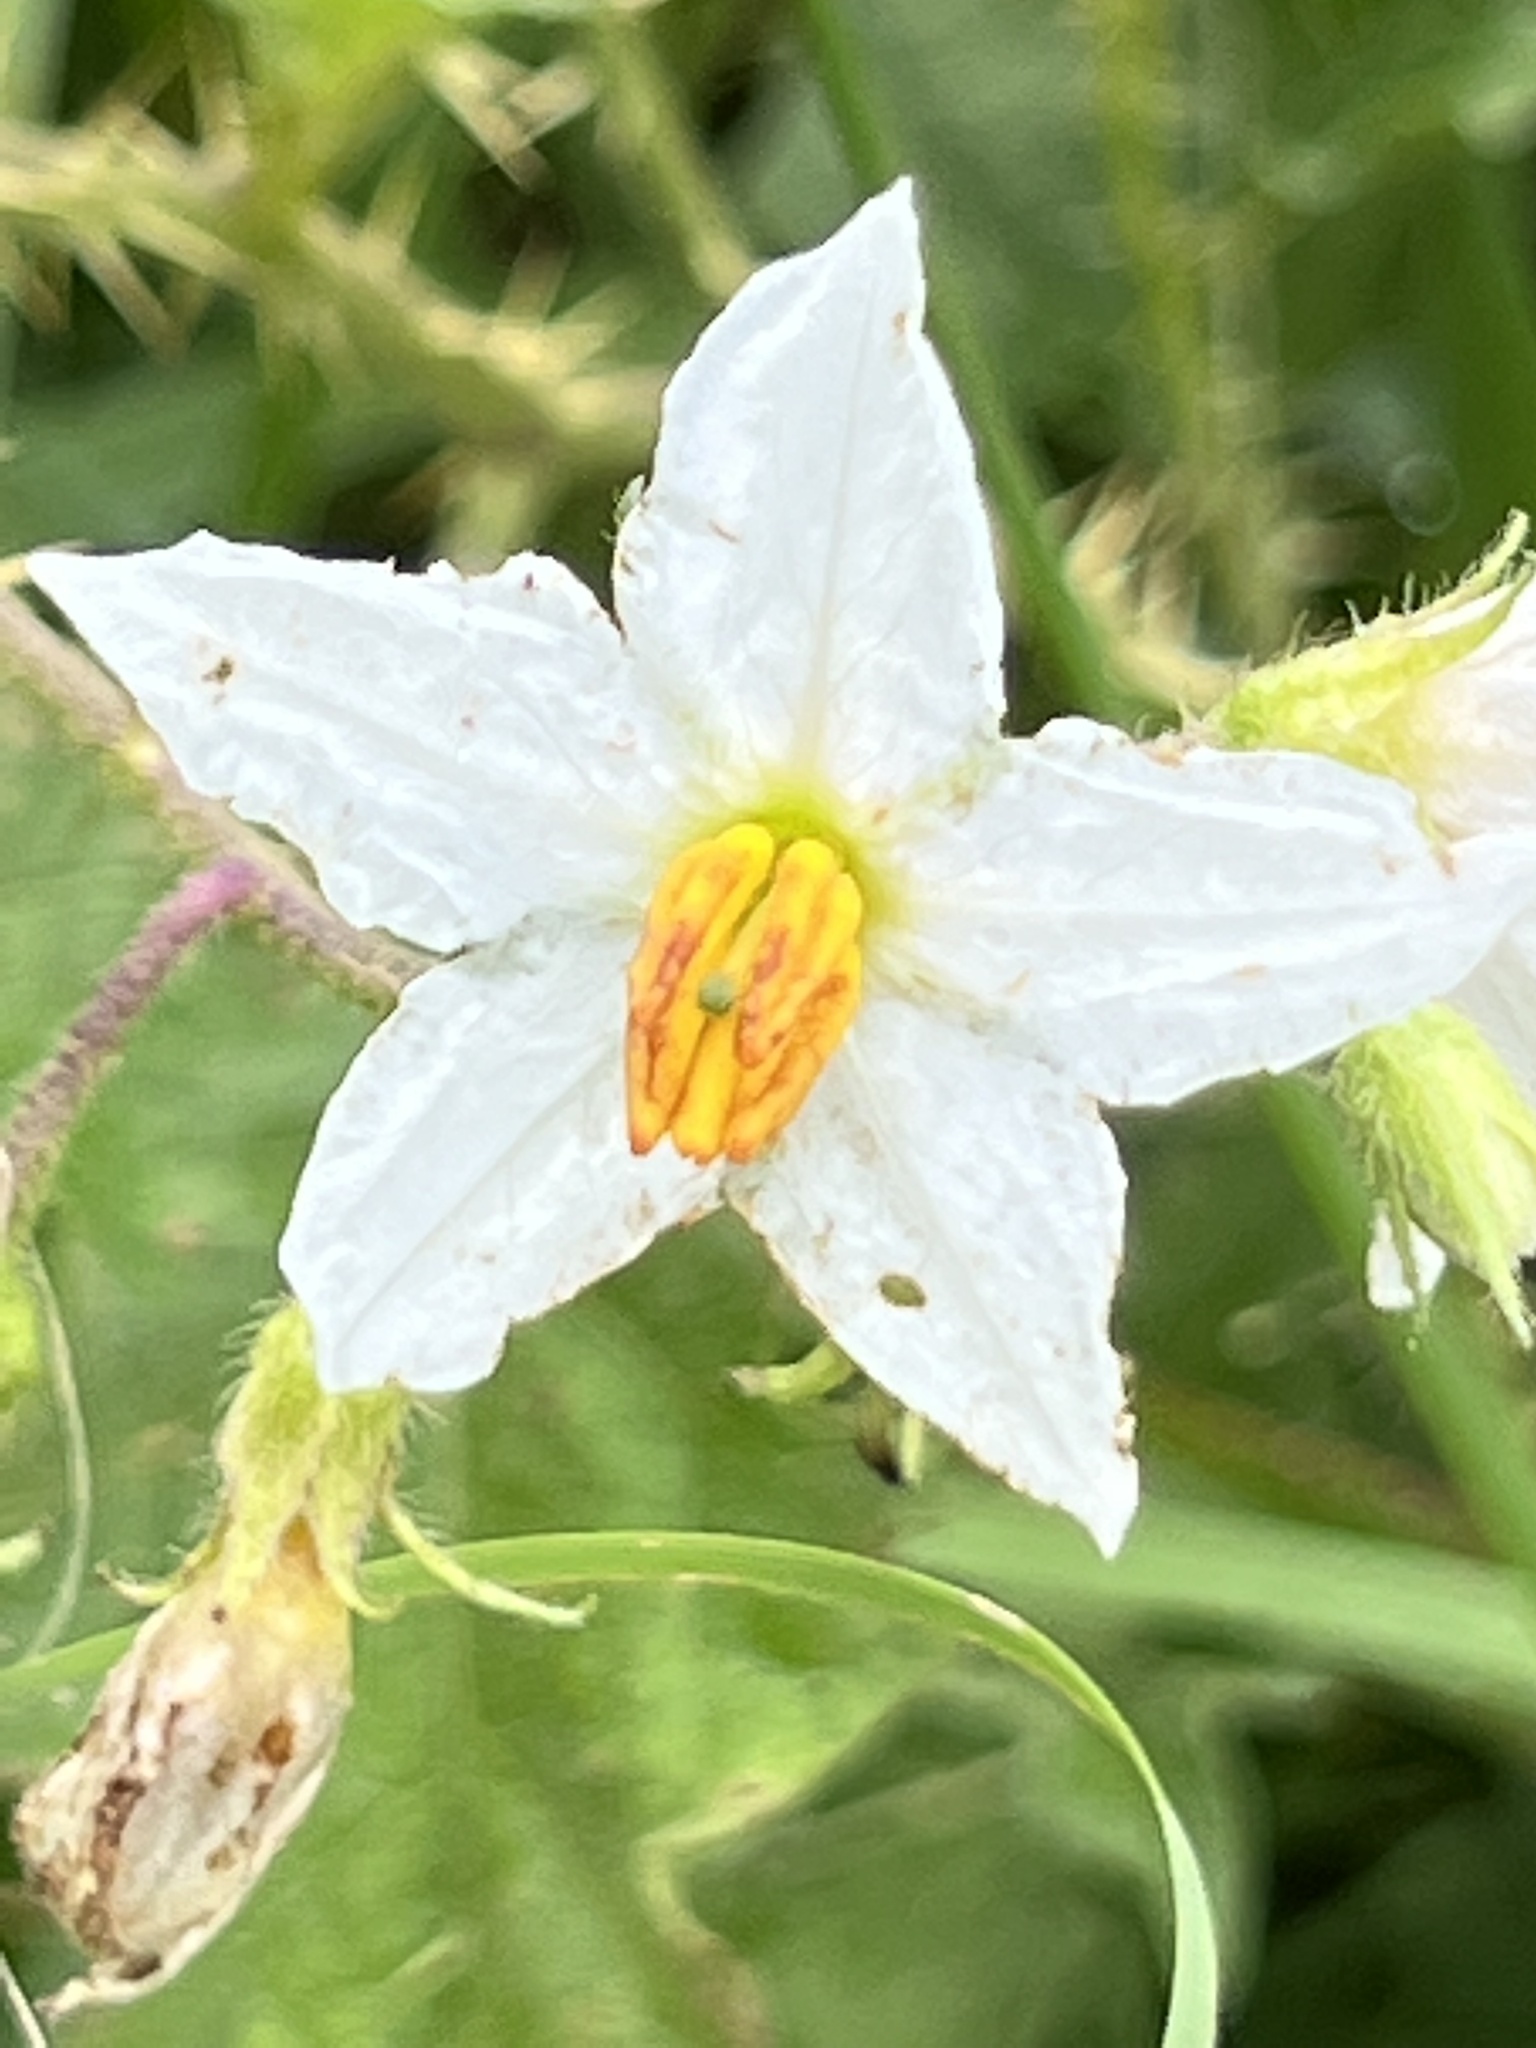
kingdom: Plantae
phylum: Tracheophyta
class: Magnoliopsida
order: Solanales
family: Solanaceae
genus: Solanum
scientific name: Solanum carolinense
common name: Horse-nettle
